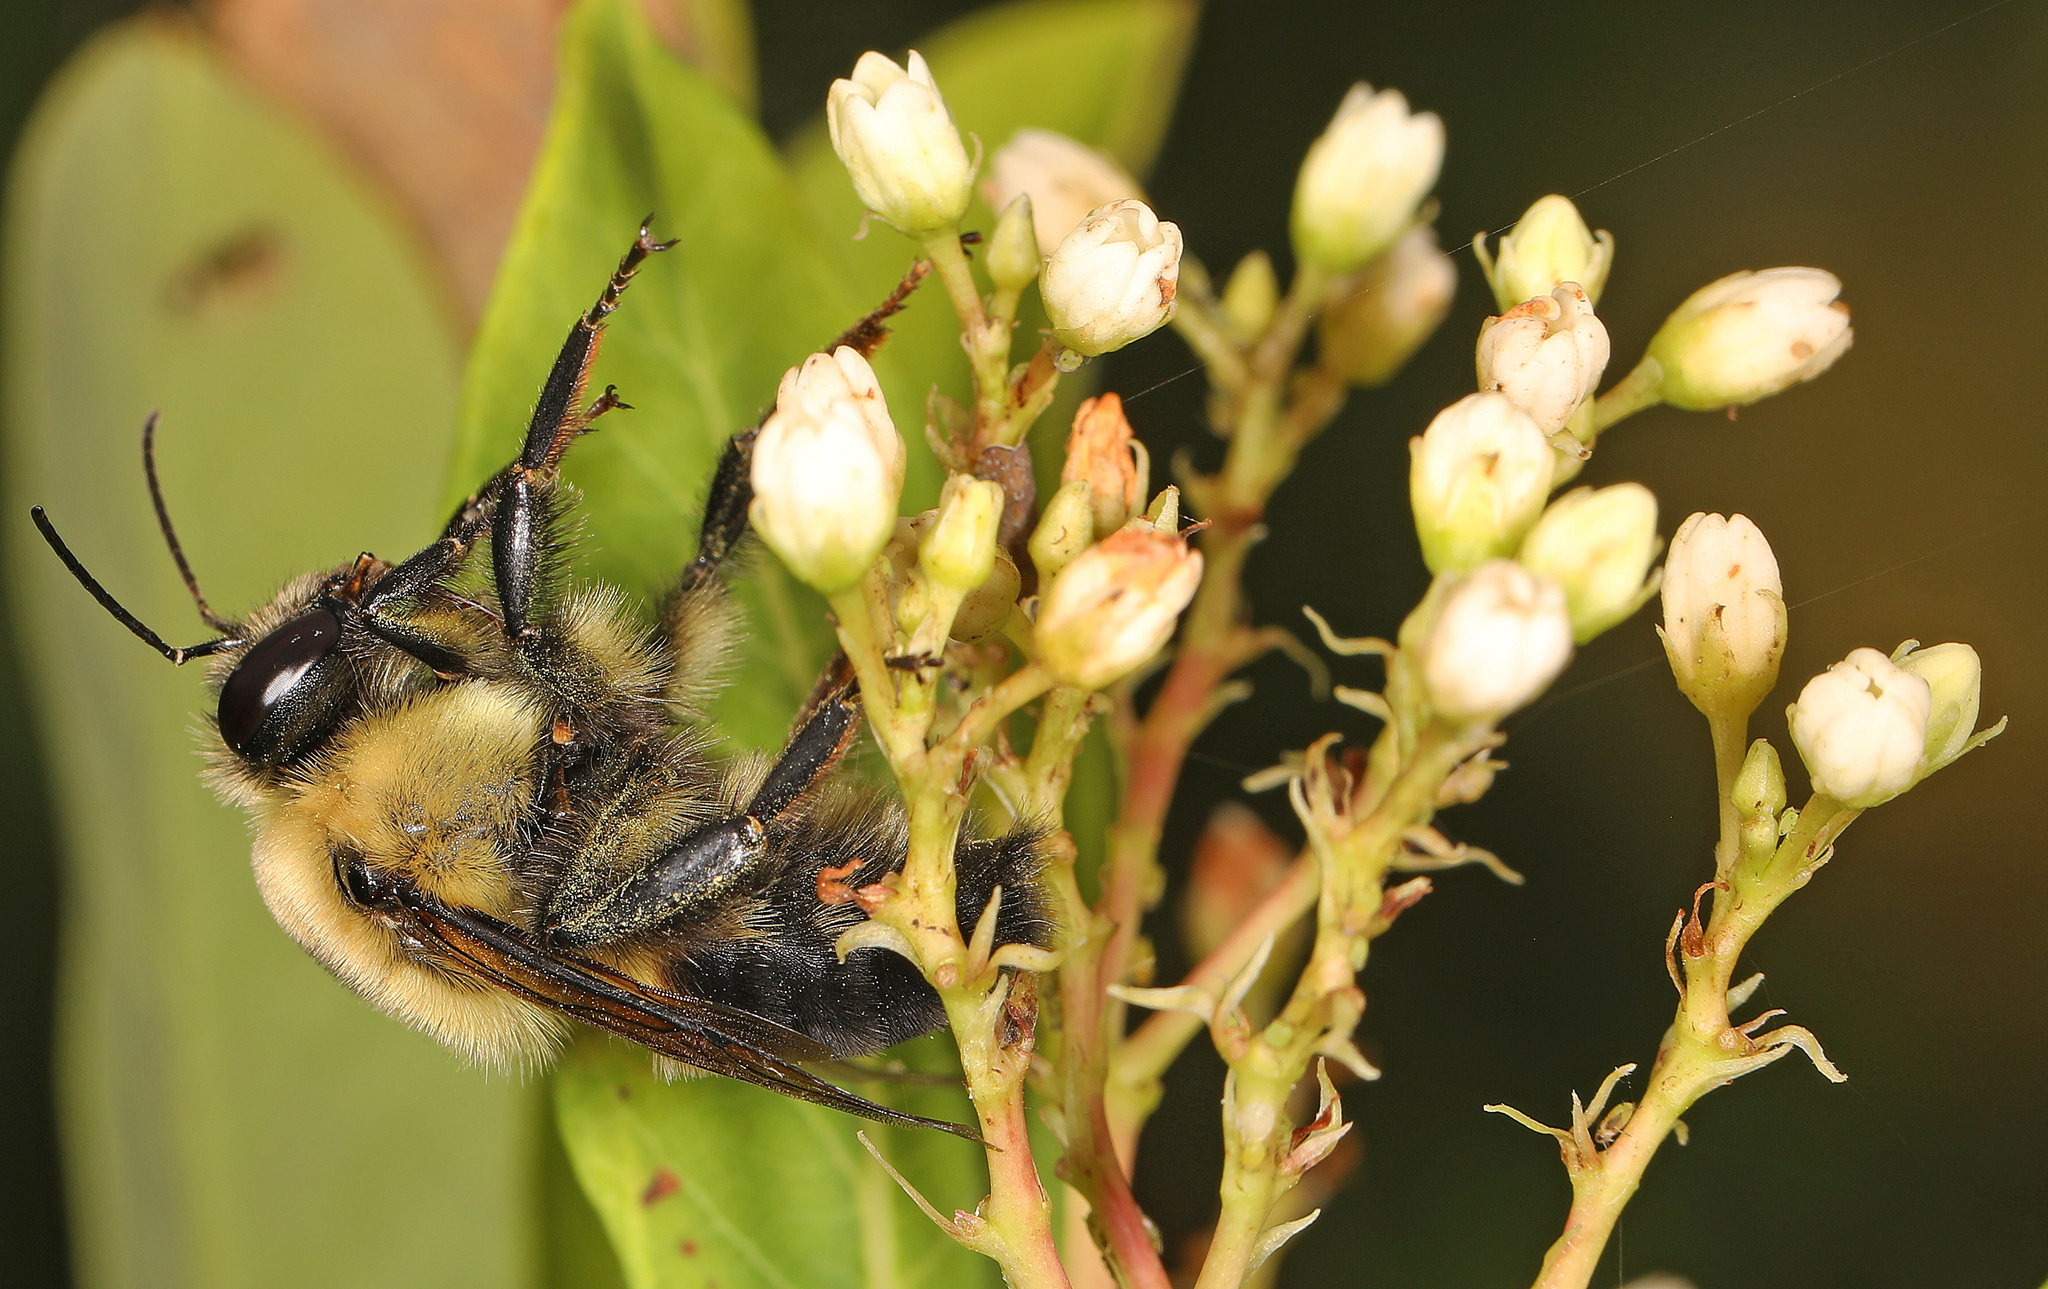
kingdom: Animalia
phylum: Arthropoda
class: Insecta
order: Hymenoptera
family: Apidae
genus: Bombus
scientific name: Bombus griseocollis
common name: Brown-belted bumble bee
